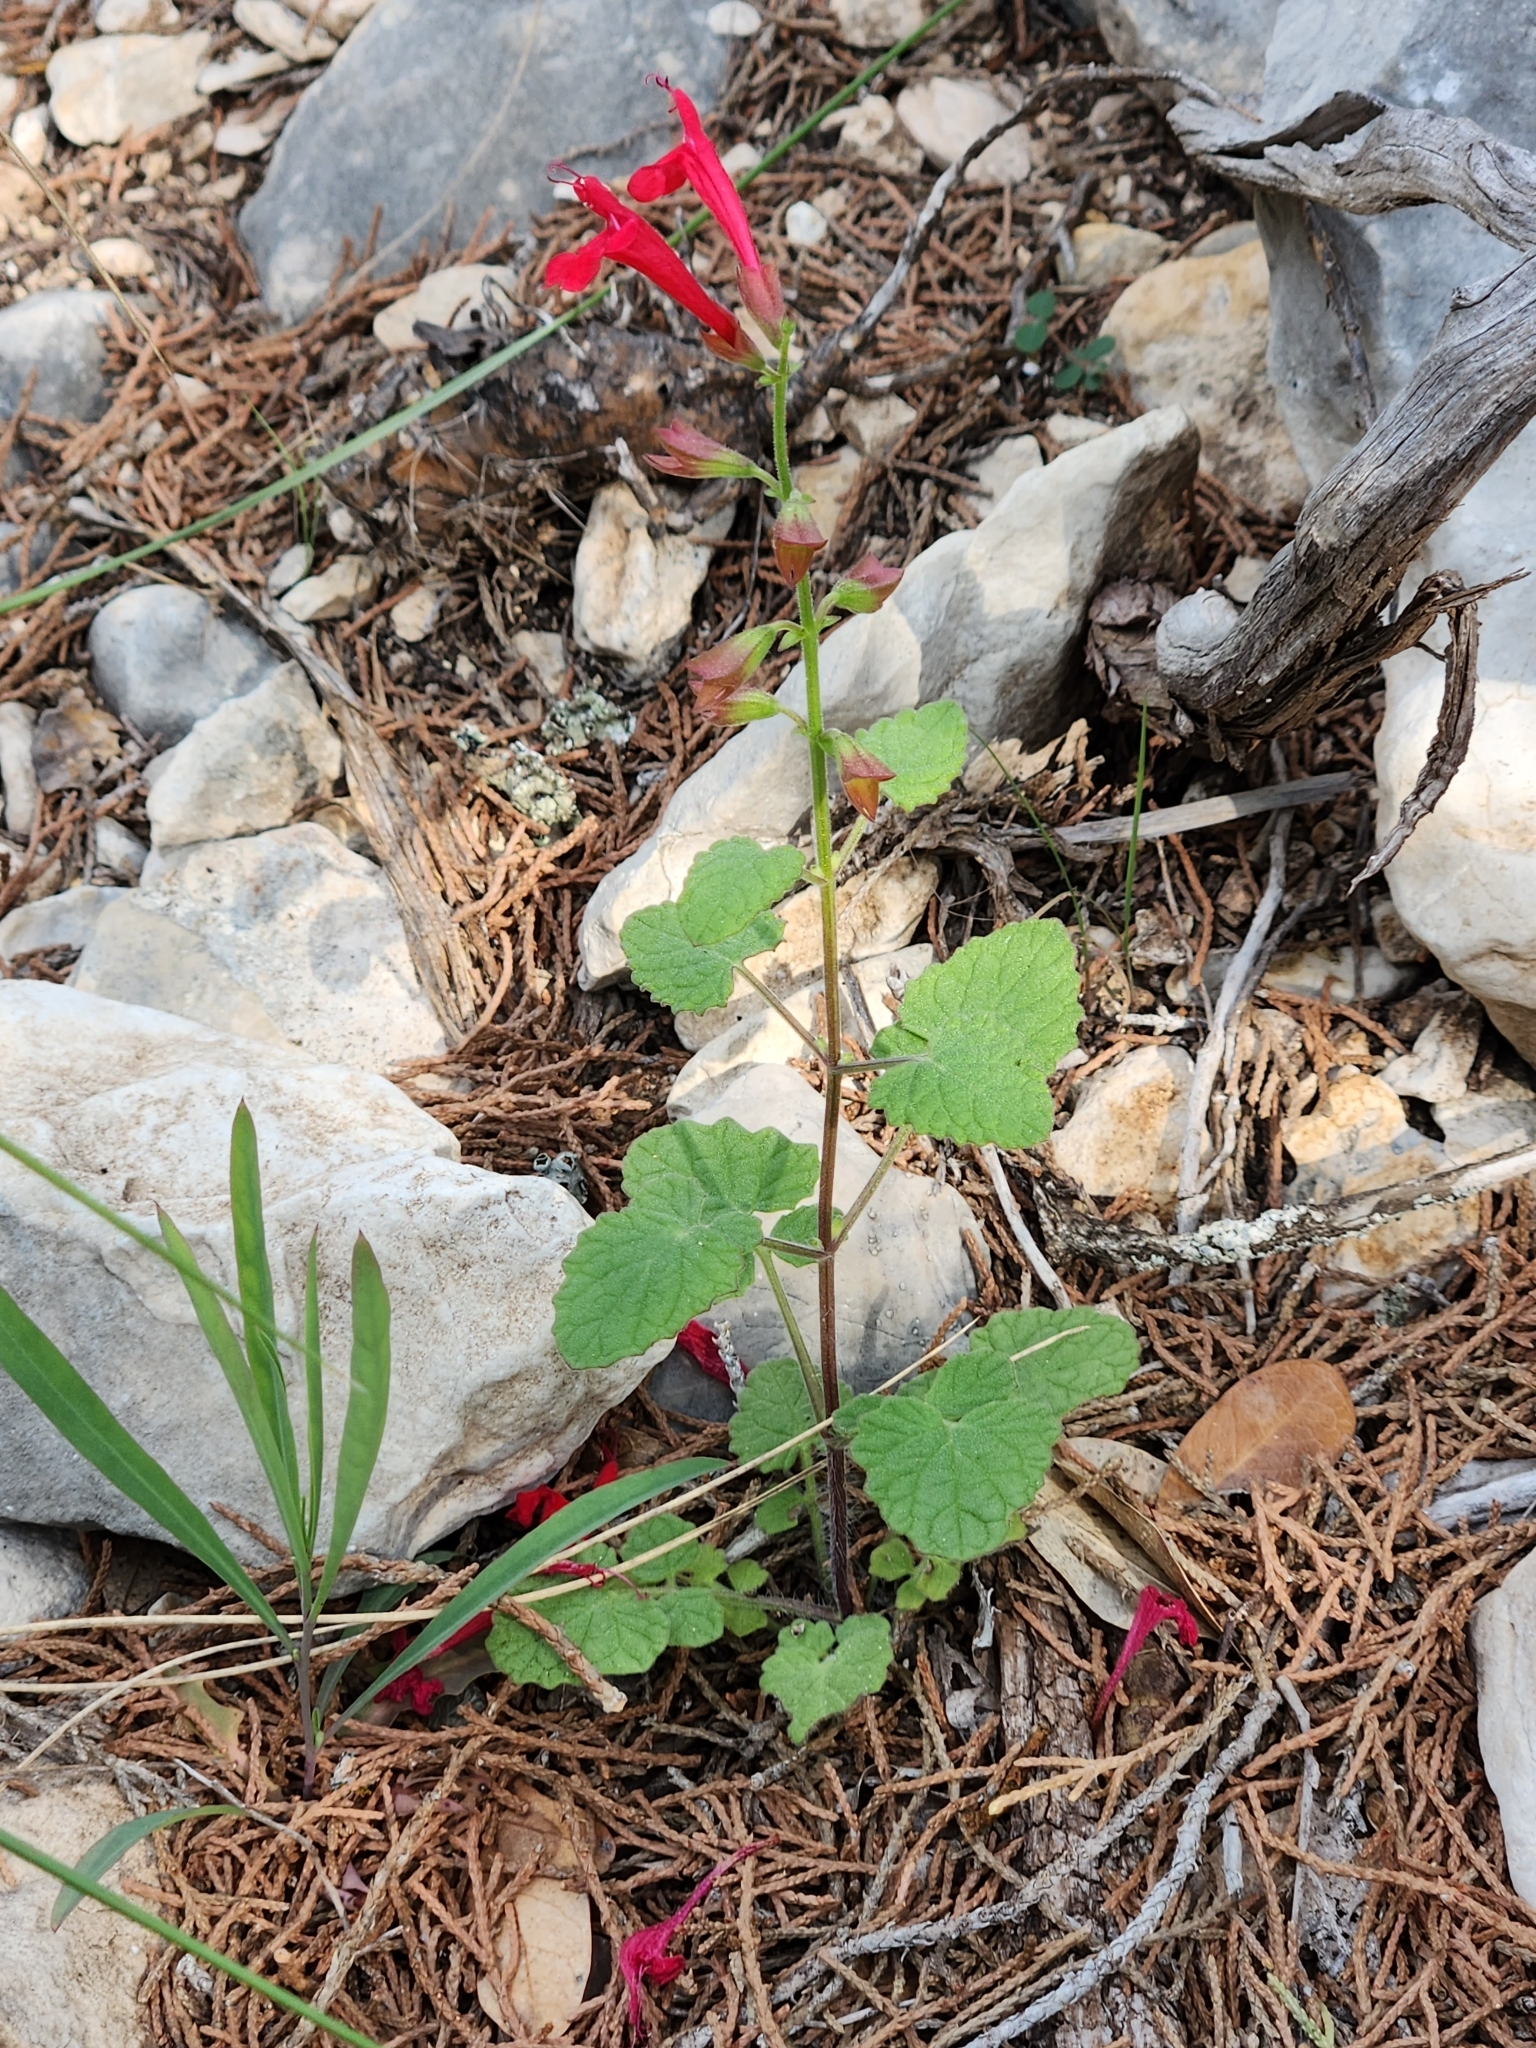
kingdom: Plantae
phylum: Tracheophyta
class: Magnoliopsida
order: Lamiales
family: Lamiaceae
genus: Salvia
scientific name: Salvia roemeriana
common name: Cedar sage
